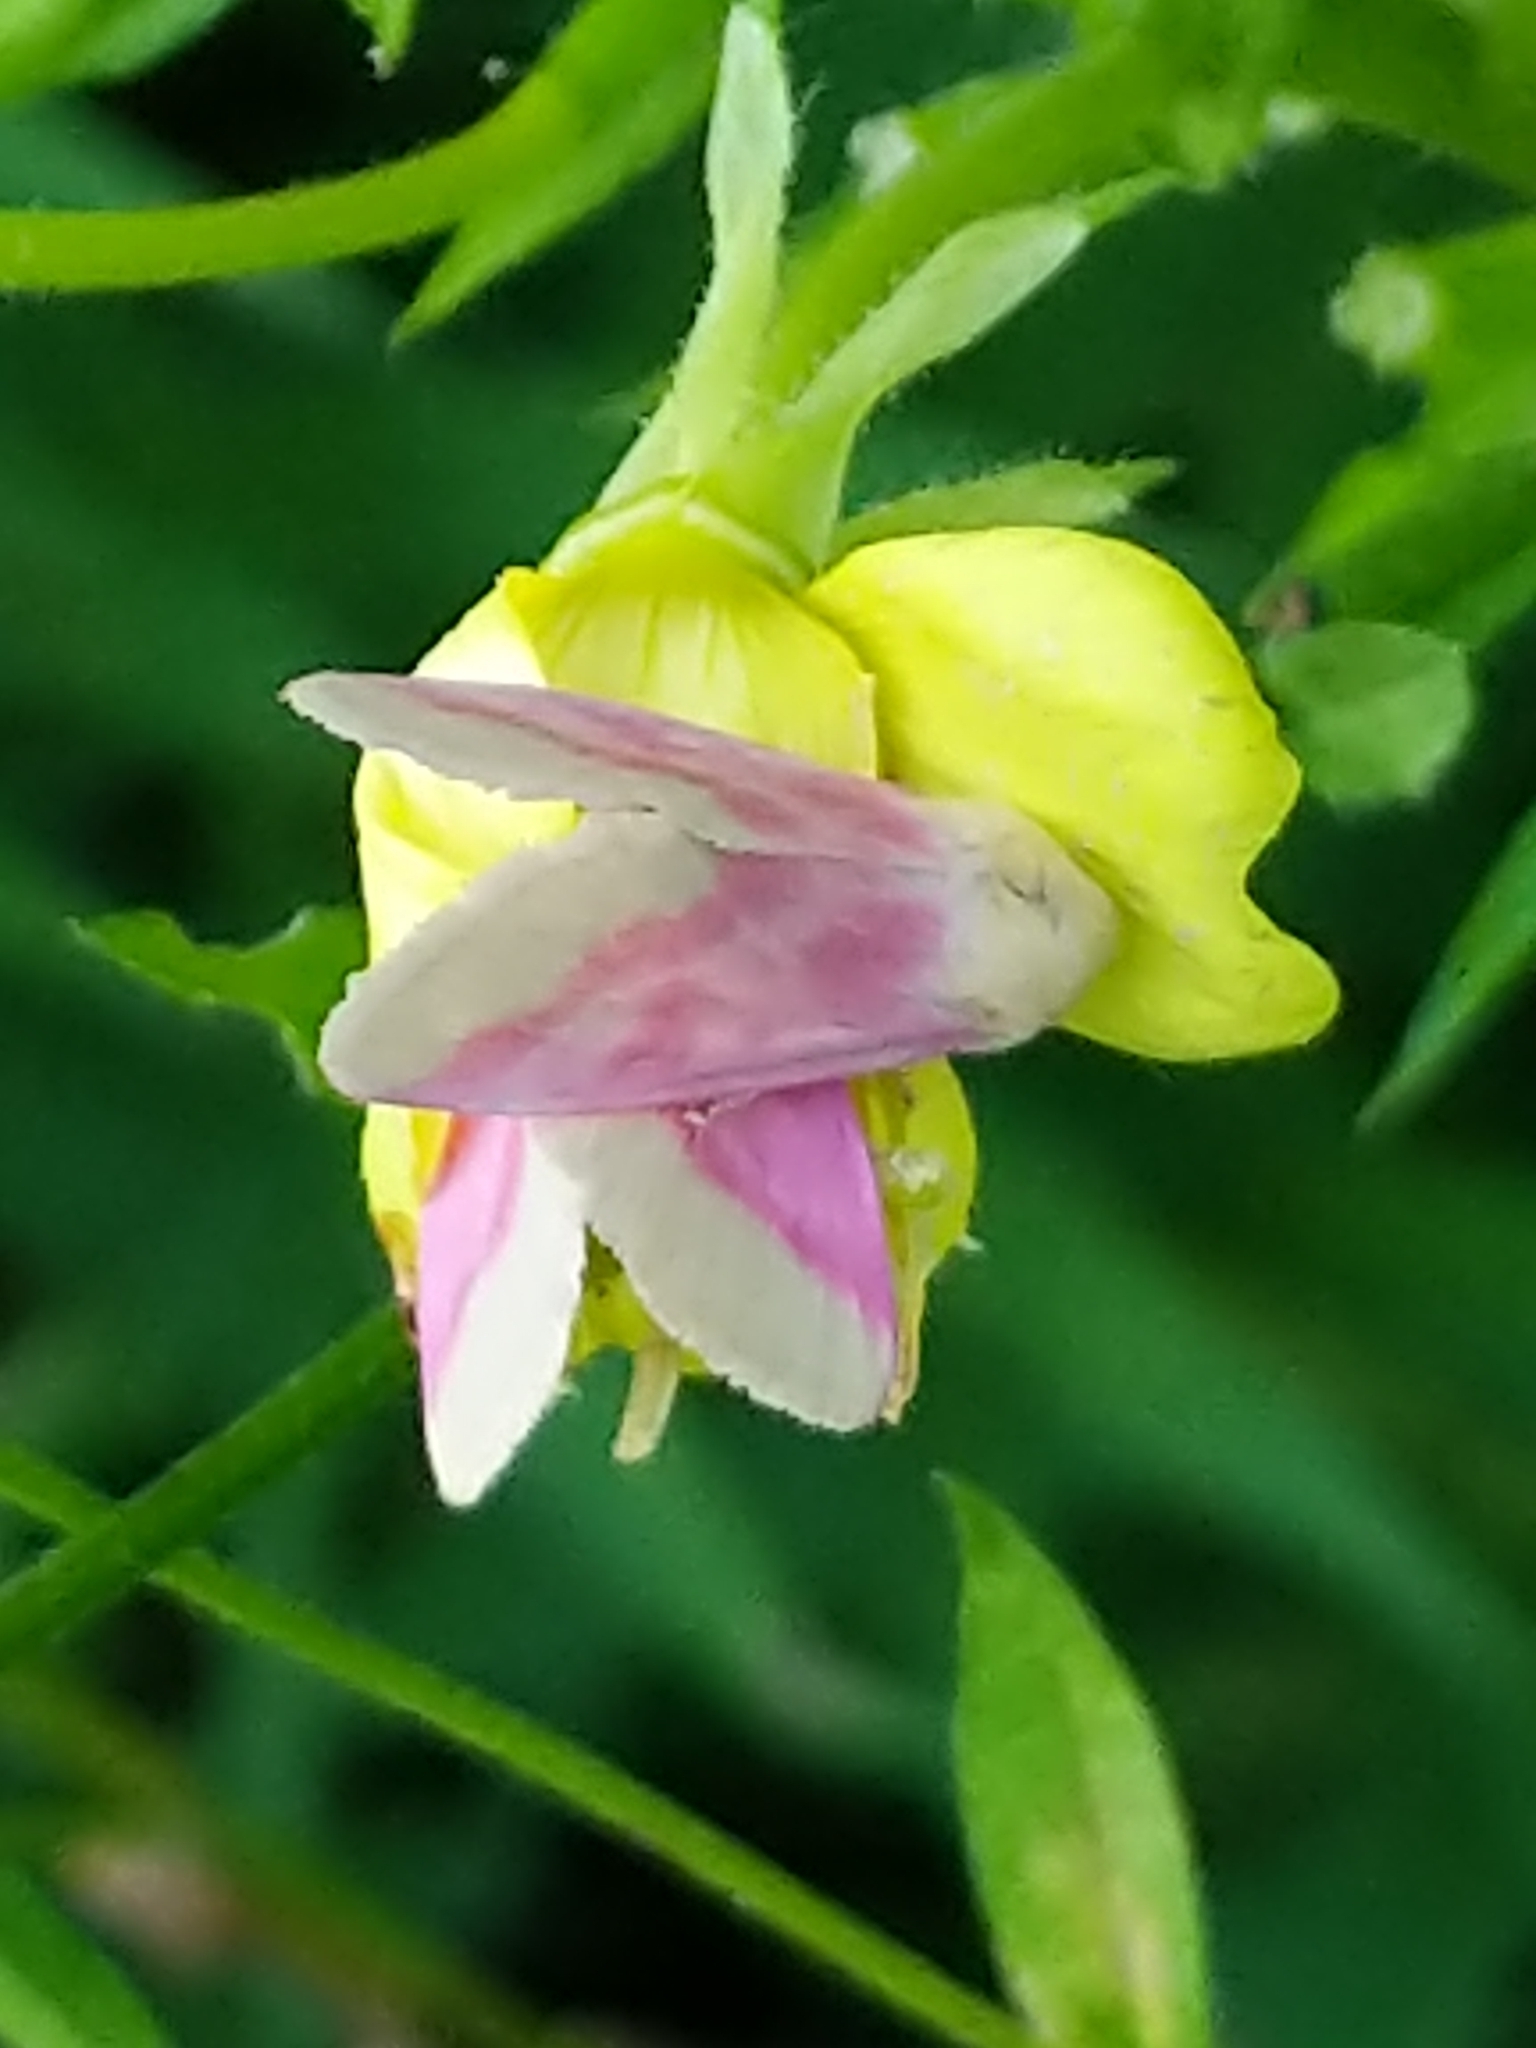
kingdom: Animalia
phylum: Arthropoda
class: Insecta
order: Lepidoptera
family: Noctuidae
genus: Schinia
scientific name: Schinia florida
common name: Primrose moth
